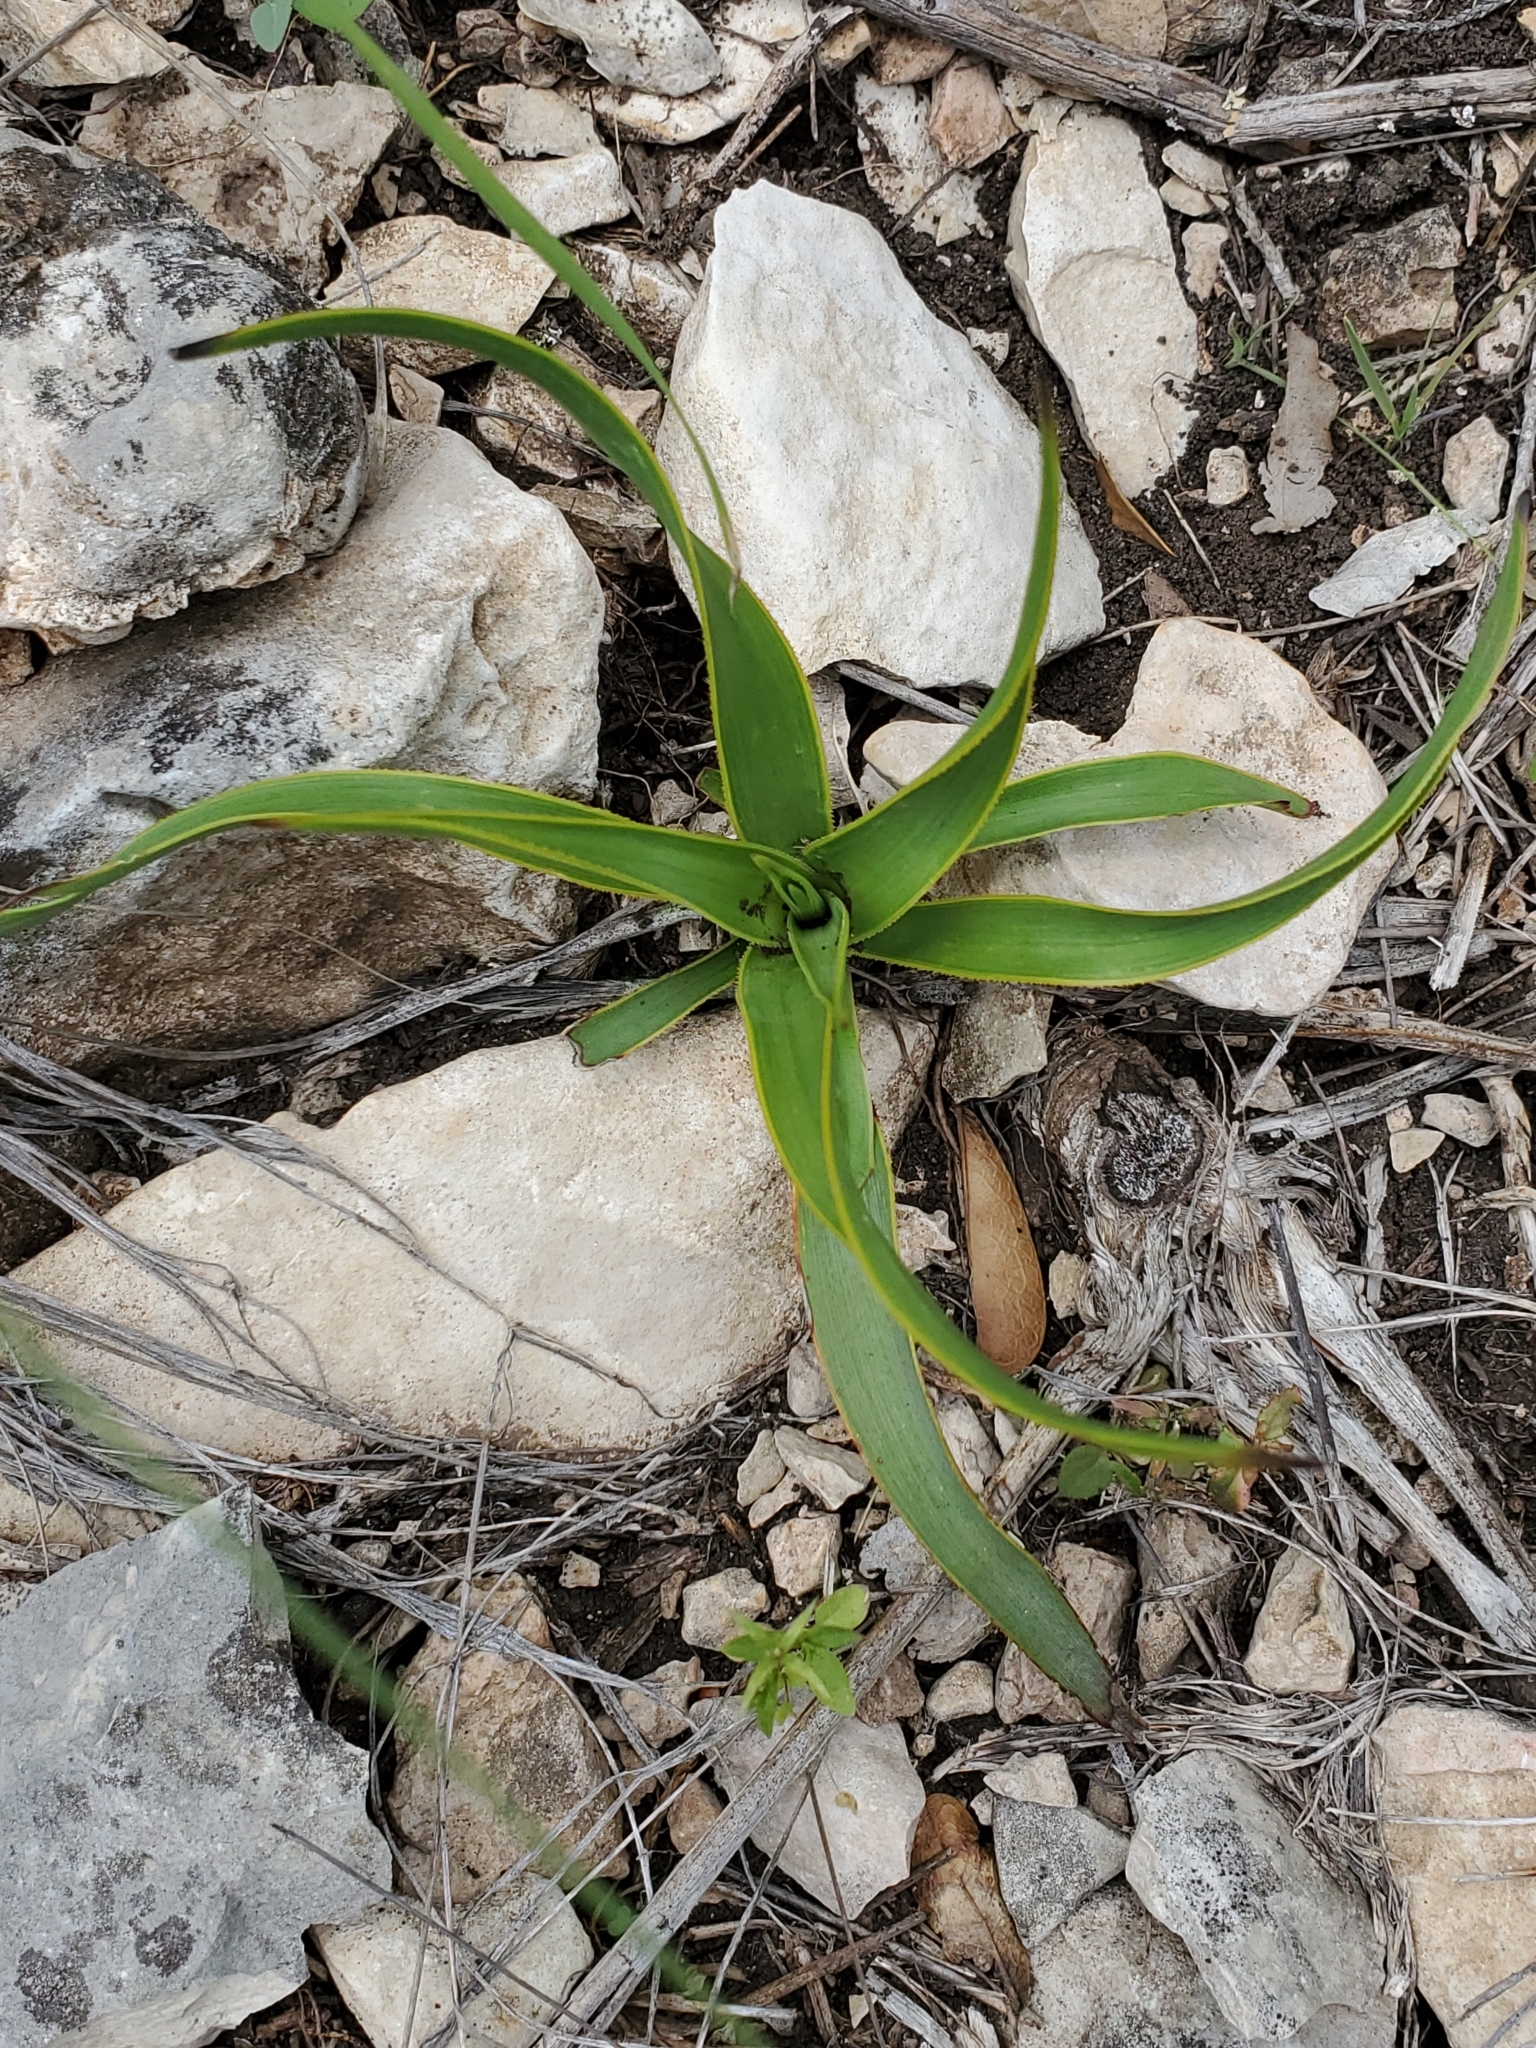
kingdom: Plantae
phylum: Tracheophyta
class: Liliopsida
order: Asparagales
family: Asparagaceae
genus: Yucca
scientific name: Yucca rupicola
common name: Twisted-leaf spanish-dagger
